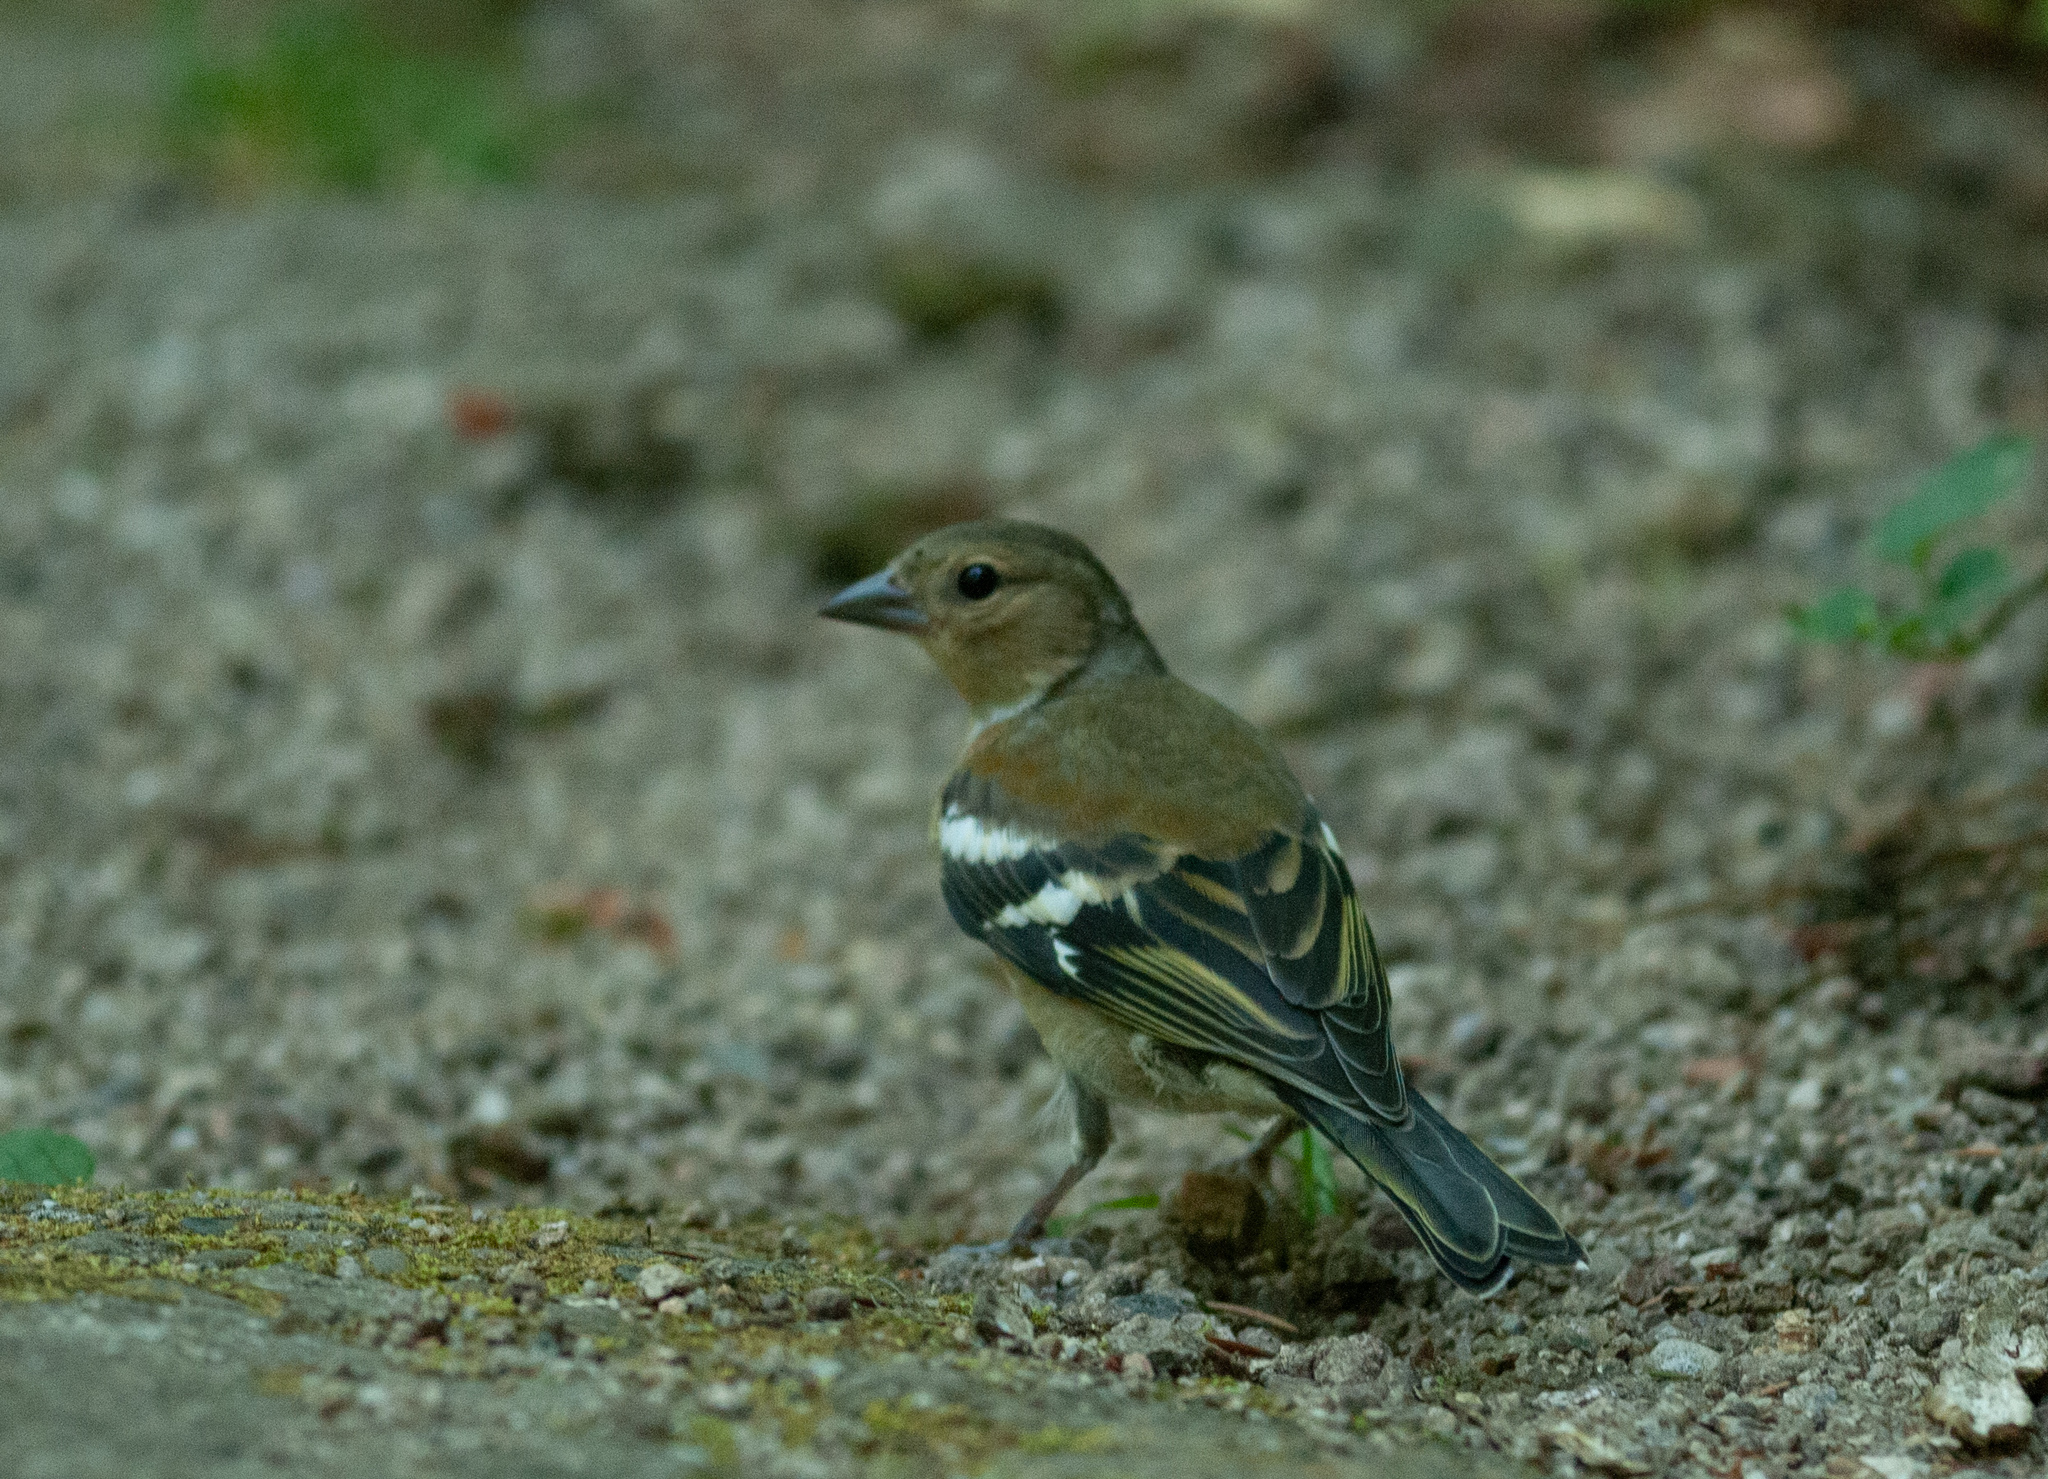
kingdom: Animalia
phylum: Chordata
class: Aves
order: Passeriformes
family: Fringillidae
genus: Fringilla
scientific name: Fringilla coelebs
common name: Common chaffinch
